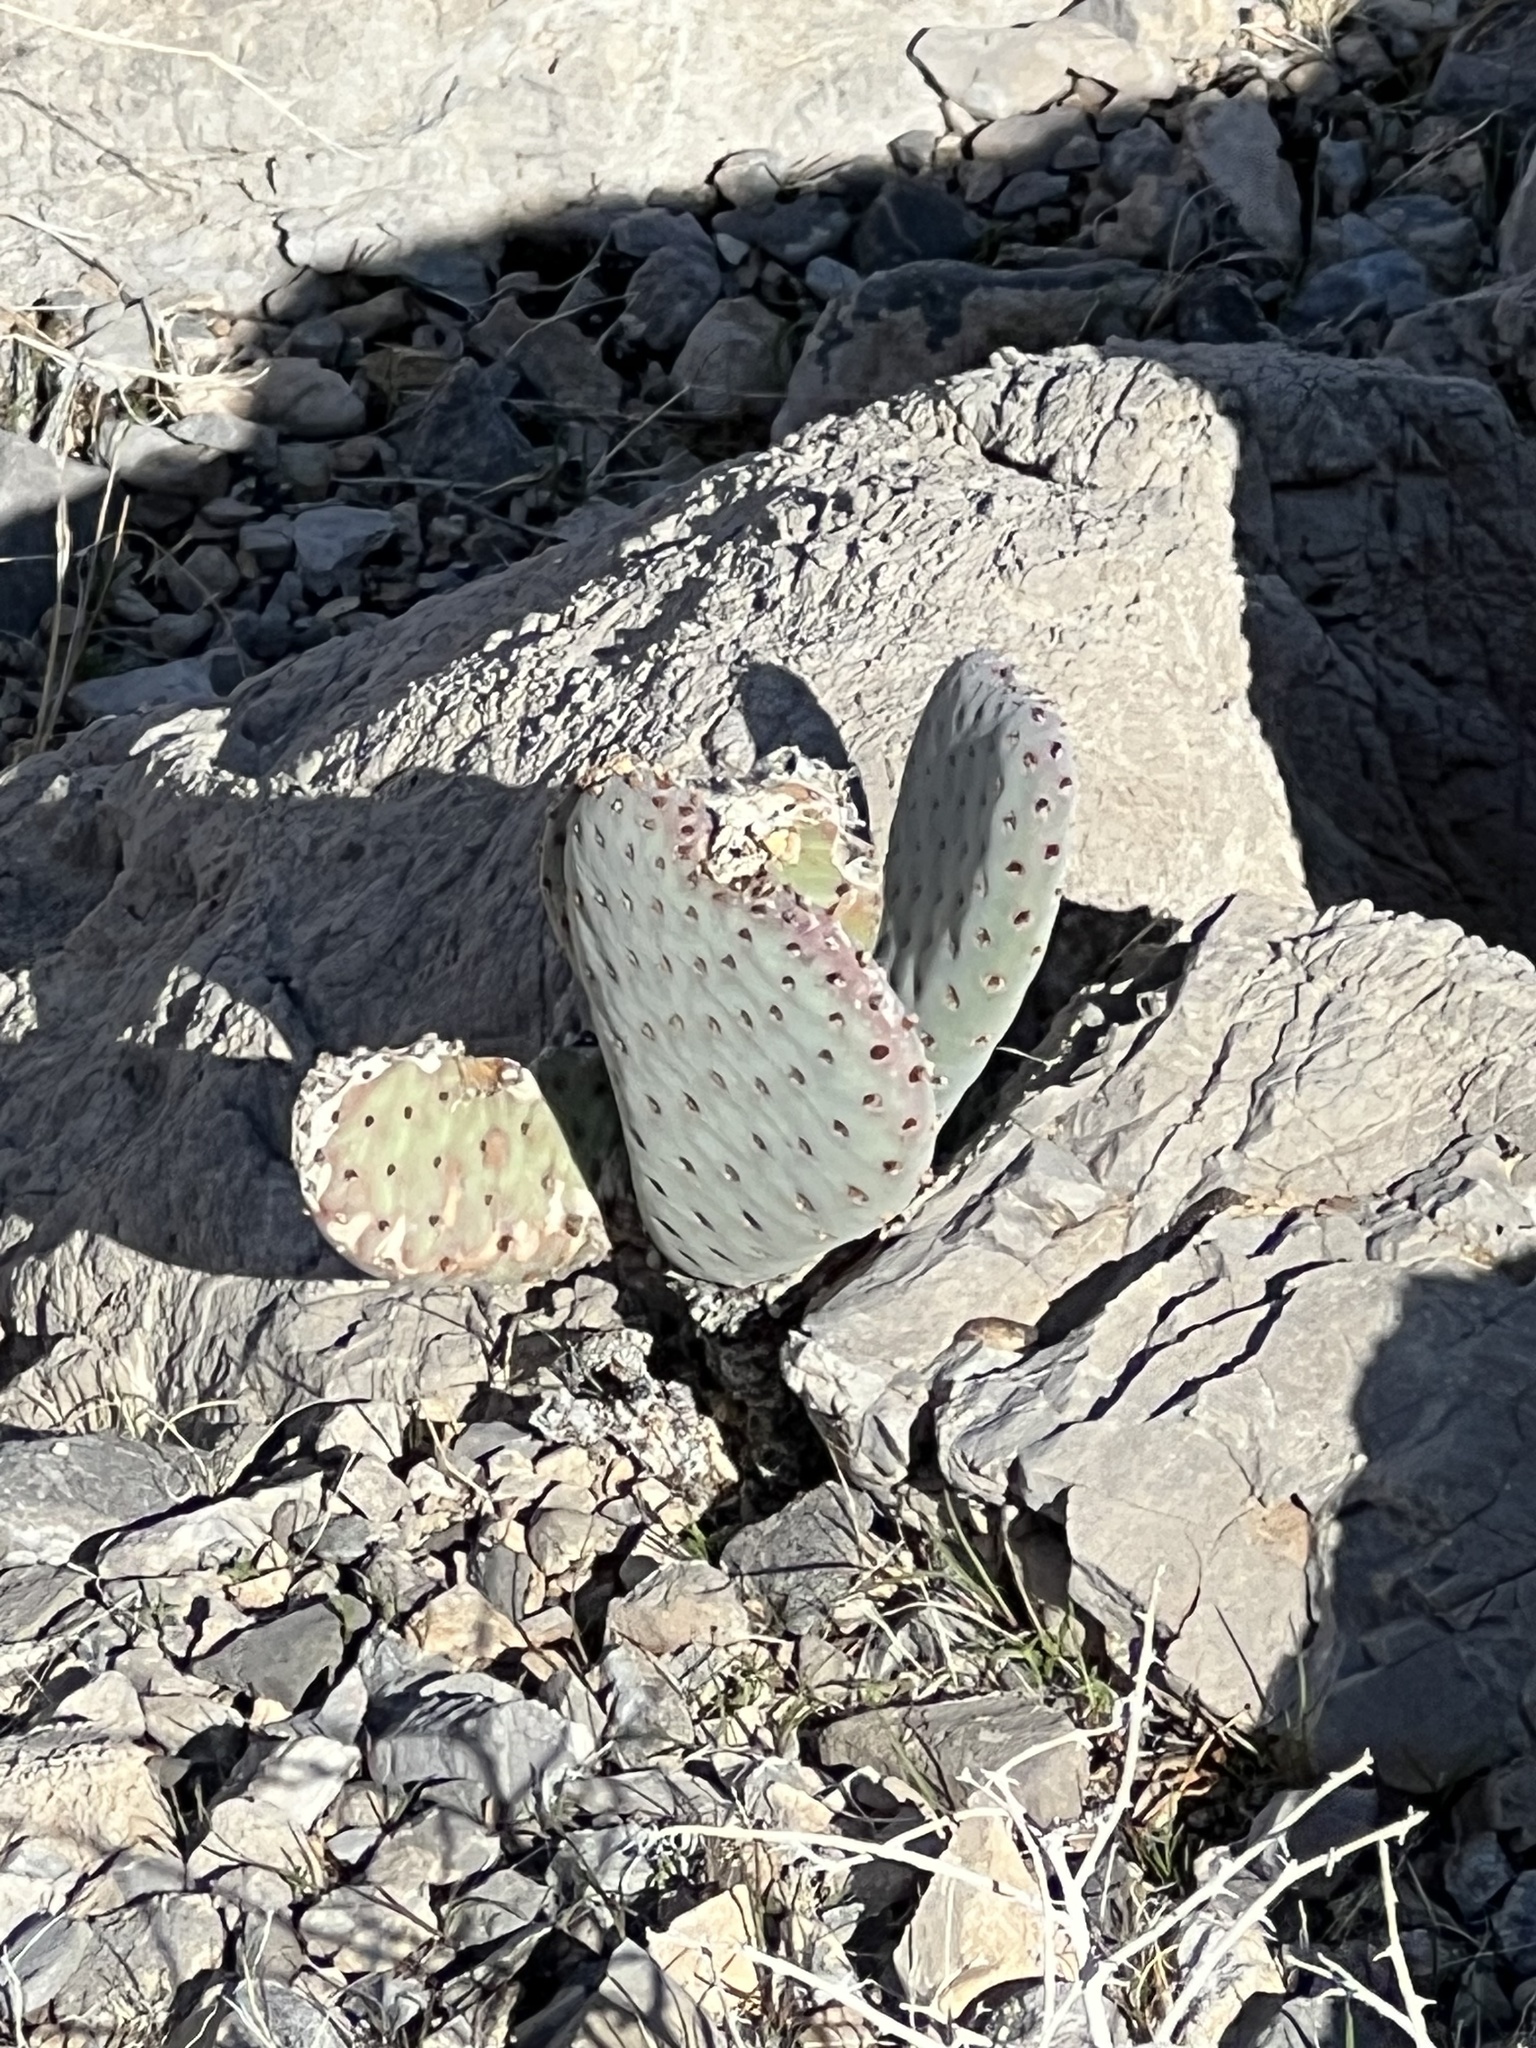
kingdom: Plantae
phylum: Tracheophyta
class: Magnoliopsida
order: Caryophyllales
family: Cactaceae
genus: Opuntia
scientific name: Opuntia basilaris
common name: Beavertail prickly-pear
